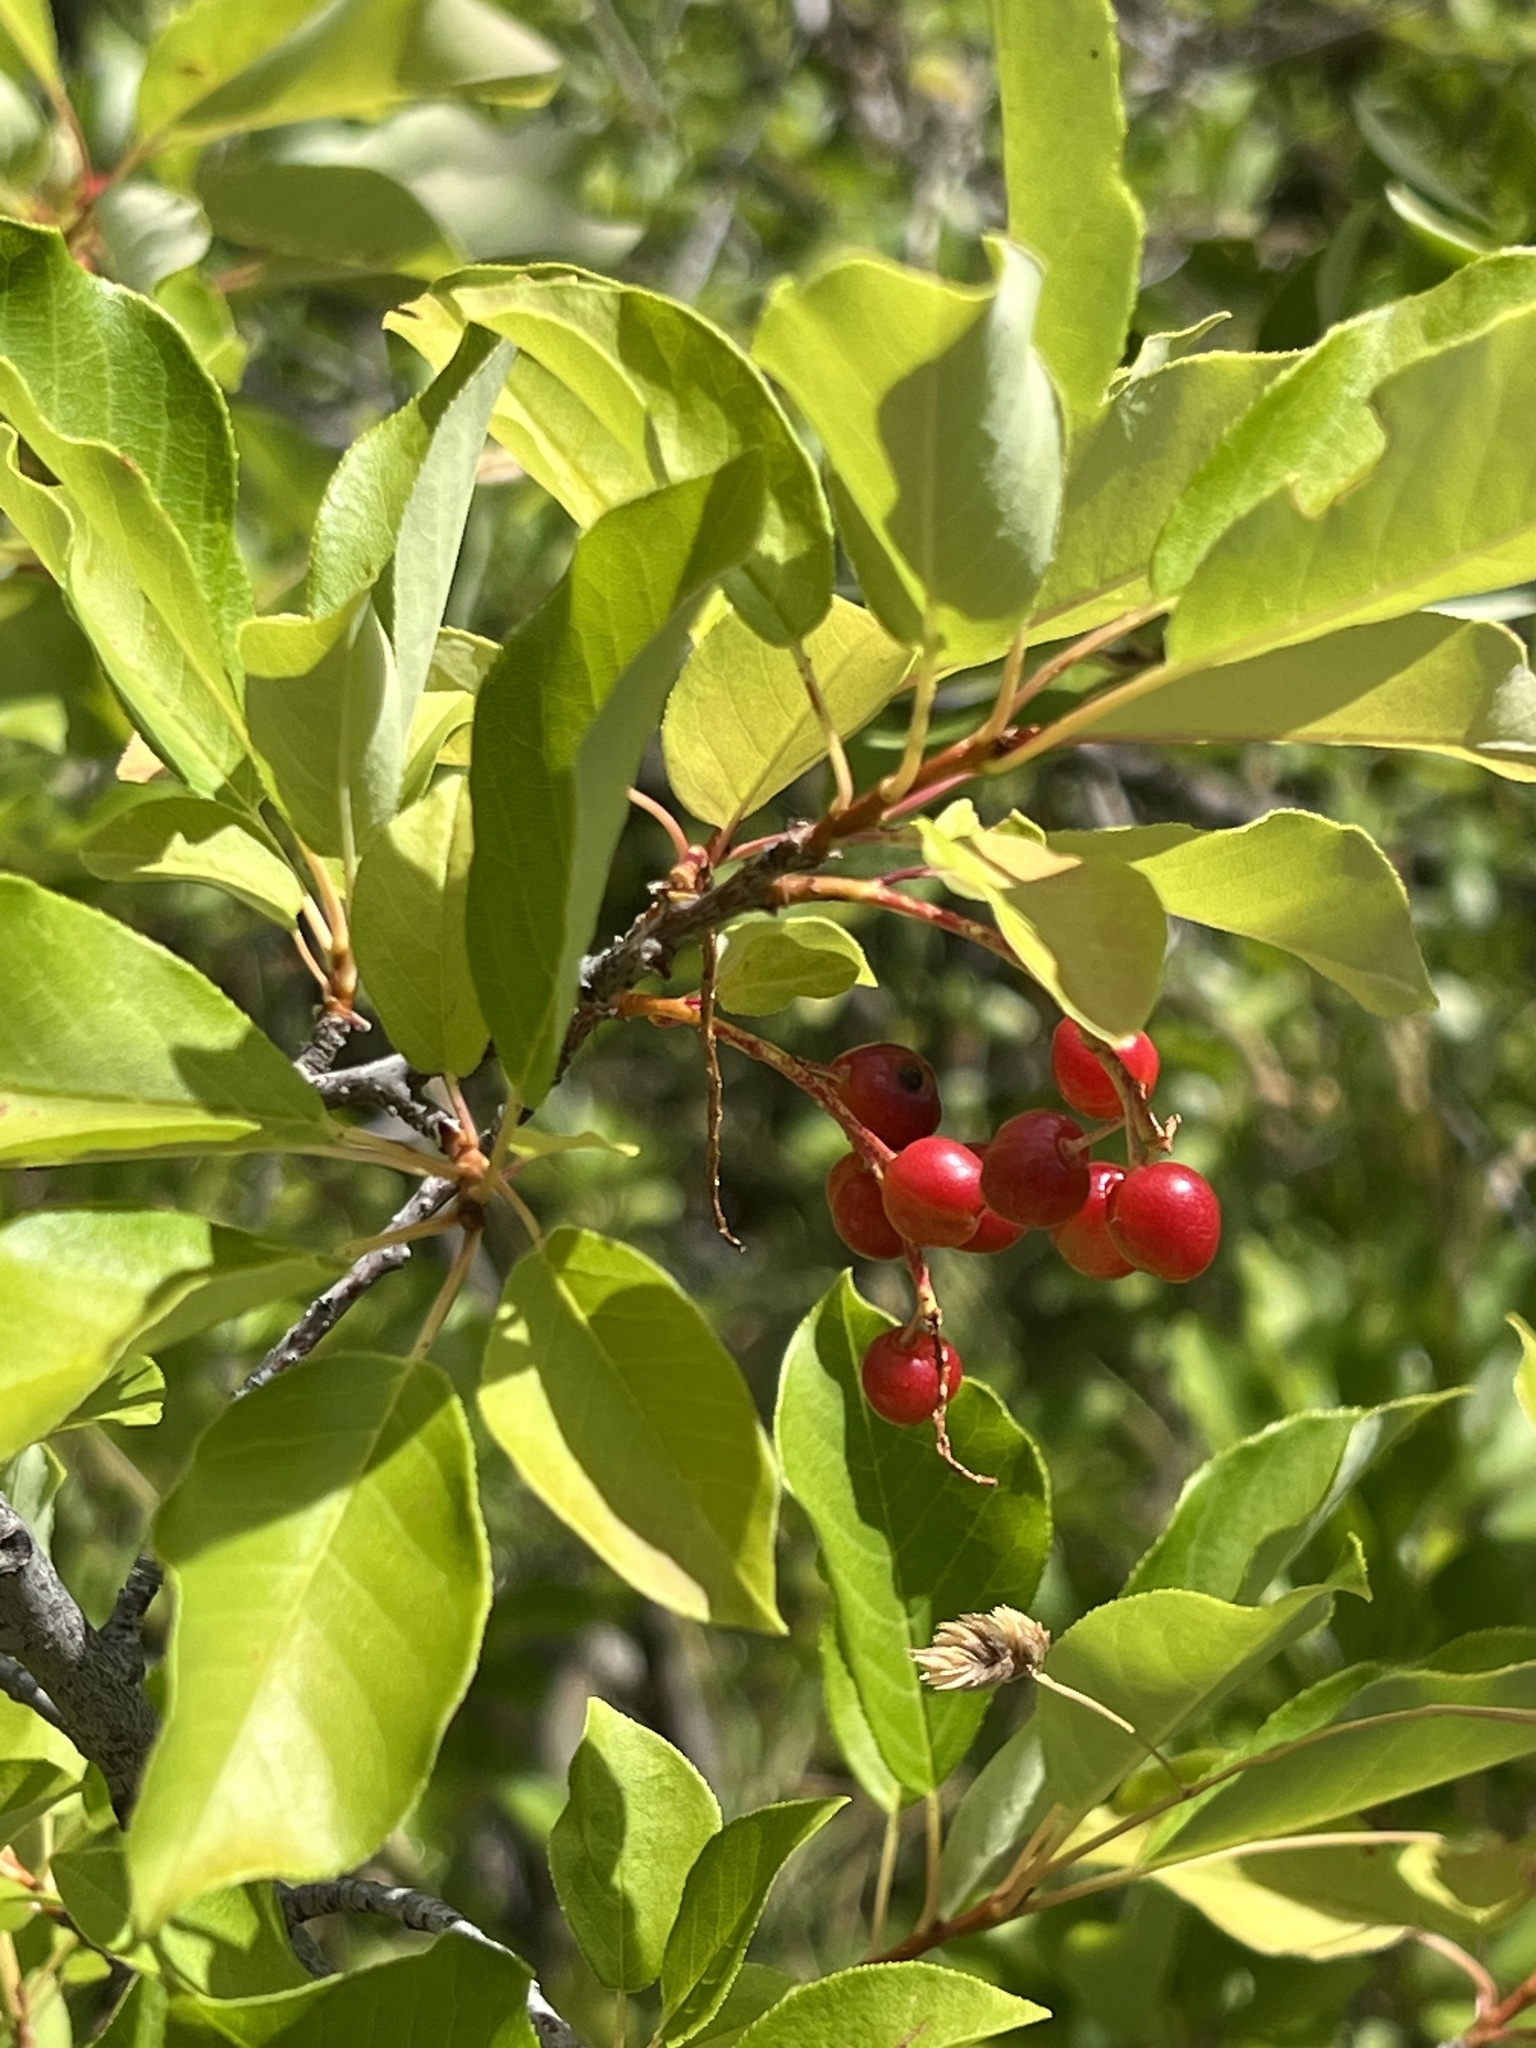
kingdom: Plantae
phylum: Tracheophyta
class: Magnoliopsida
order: Rosales
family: Rosaceae
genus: Prunus
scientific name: Prunus virginiana
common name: Chokecherry
